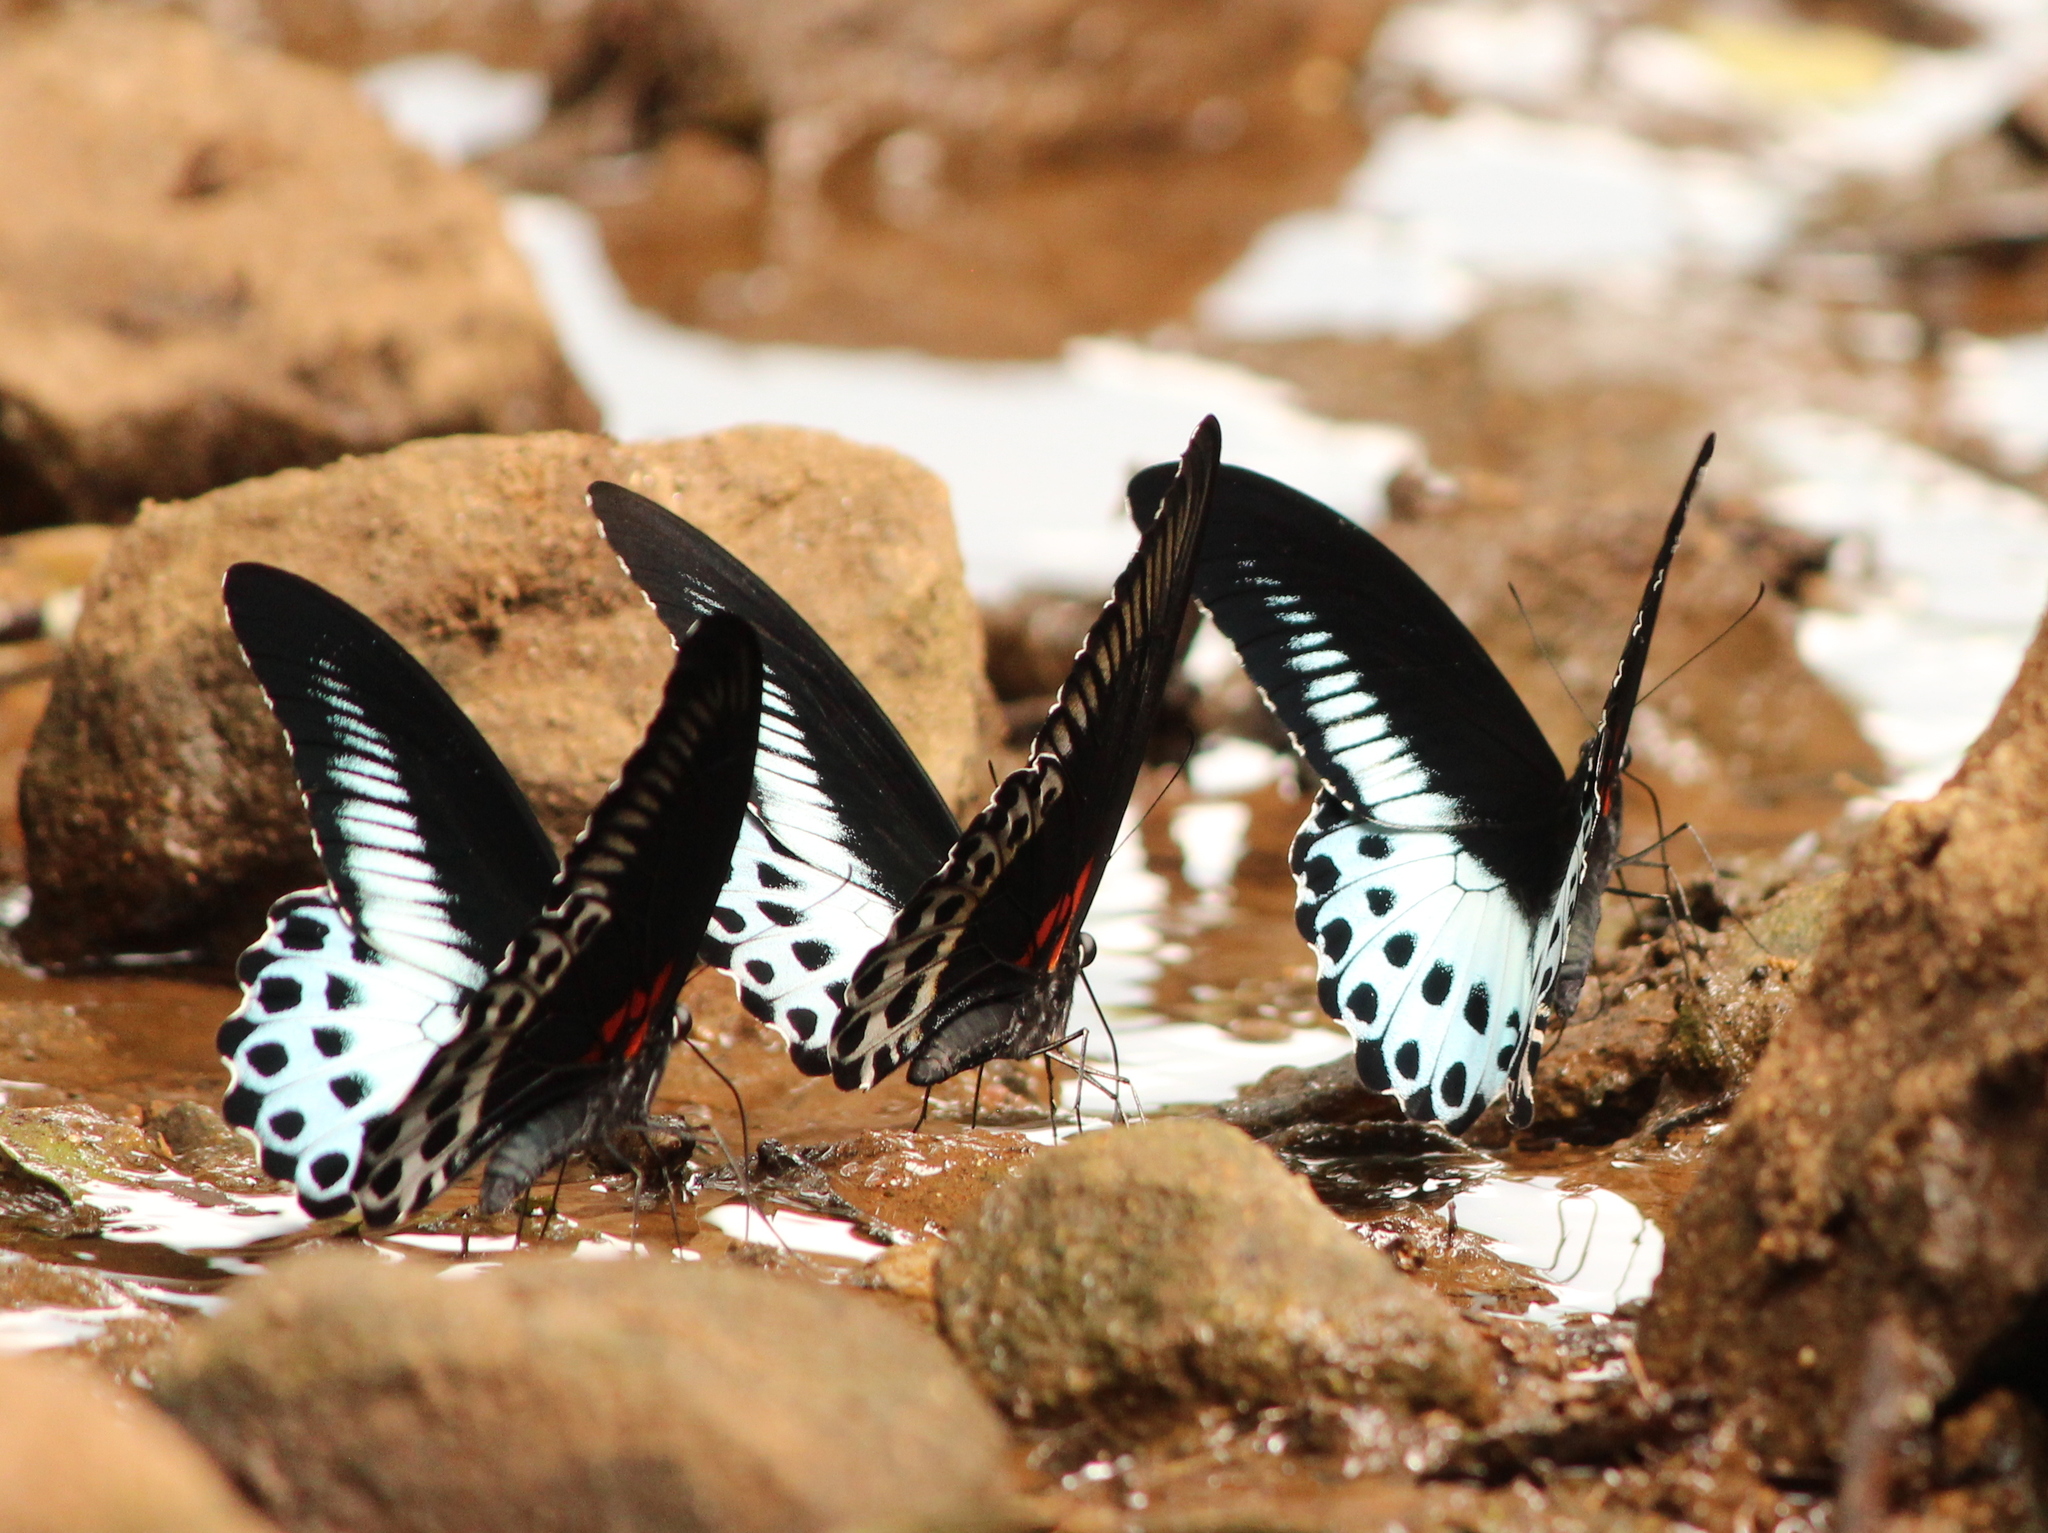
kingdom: Animalia
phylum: Arthropoda
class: Insecta
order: Lepidoptera
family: Papilionidae
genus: Papilio
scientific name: Papilio memnon
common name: Great mormon
